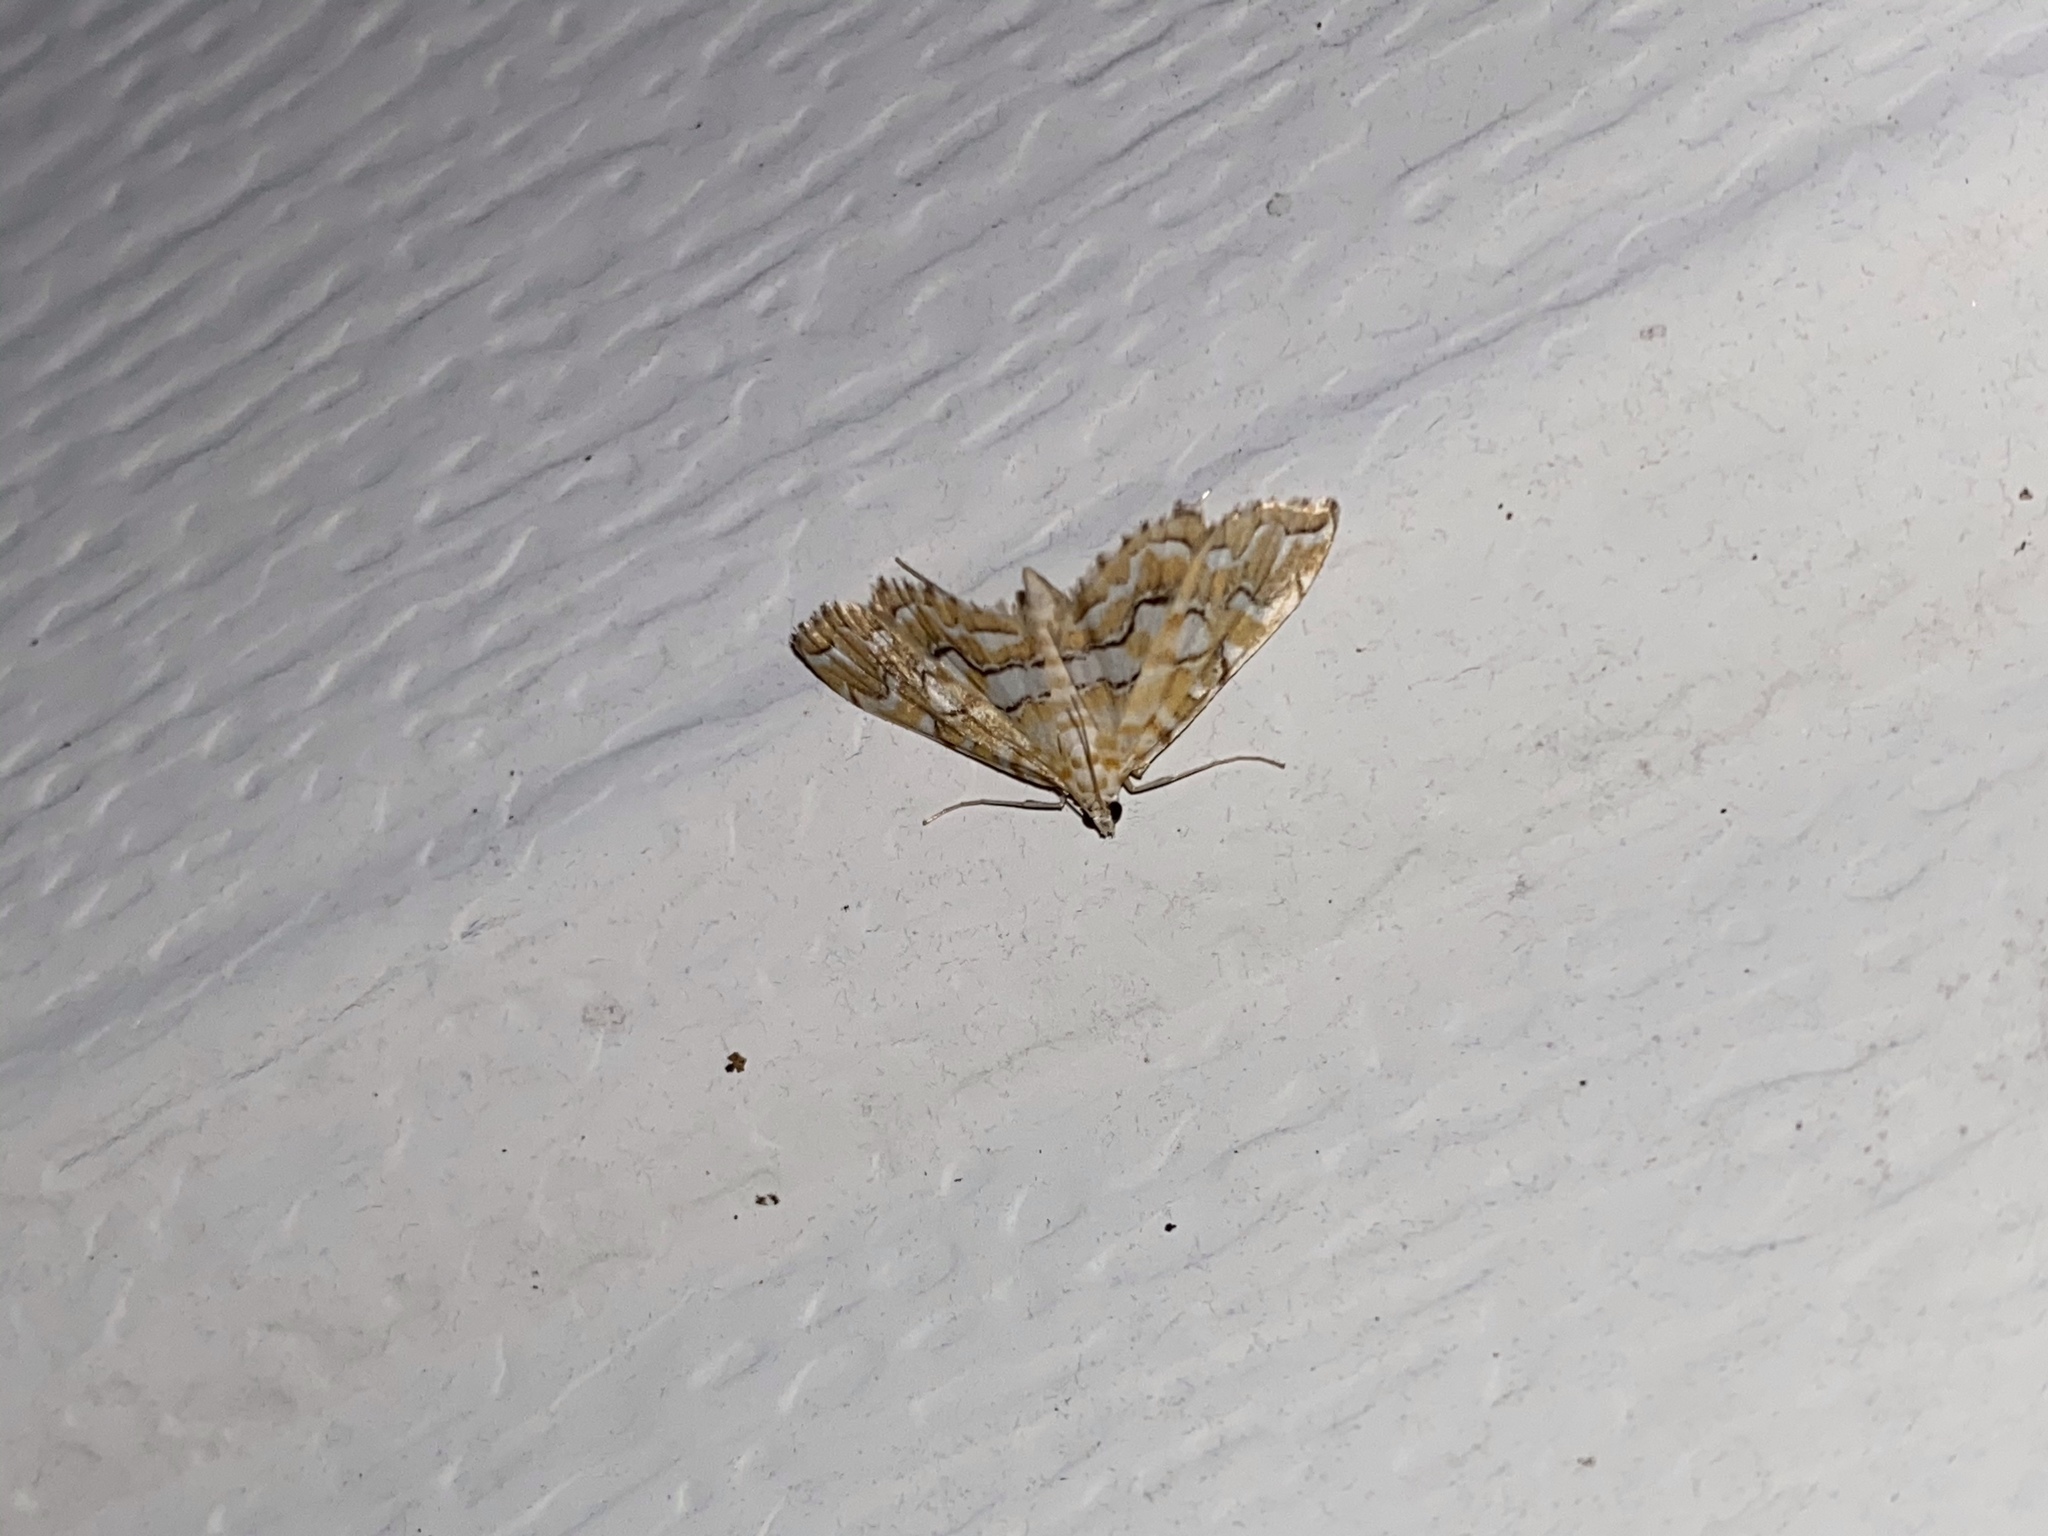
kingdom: Animalia
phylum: Arthropoda
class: Insecta
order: Lepidoptera
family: Crambidae
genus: Elophila
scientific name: Elophila icciusalis
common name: Pondside pyralid moth
